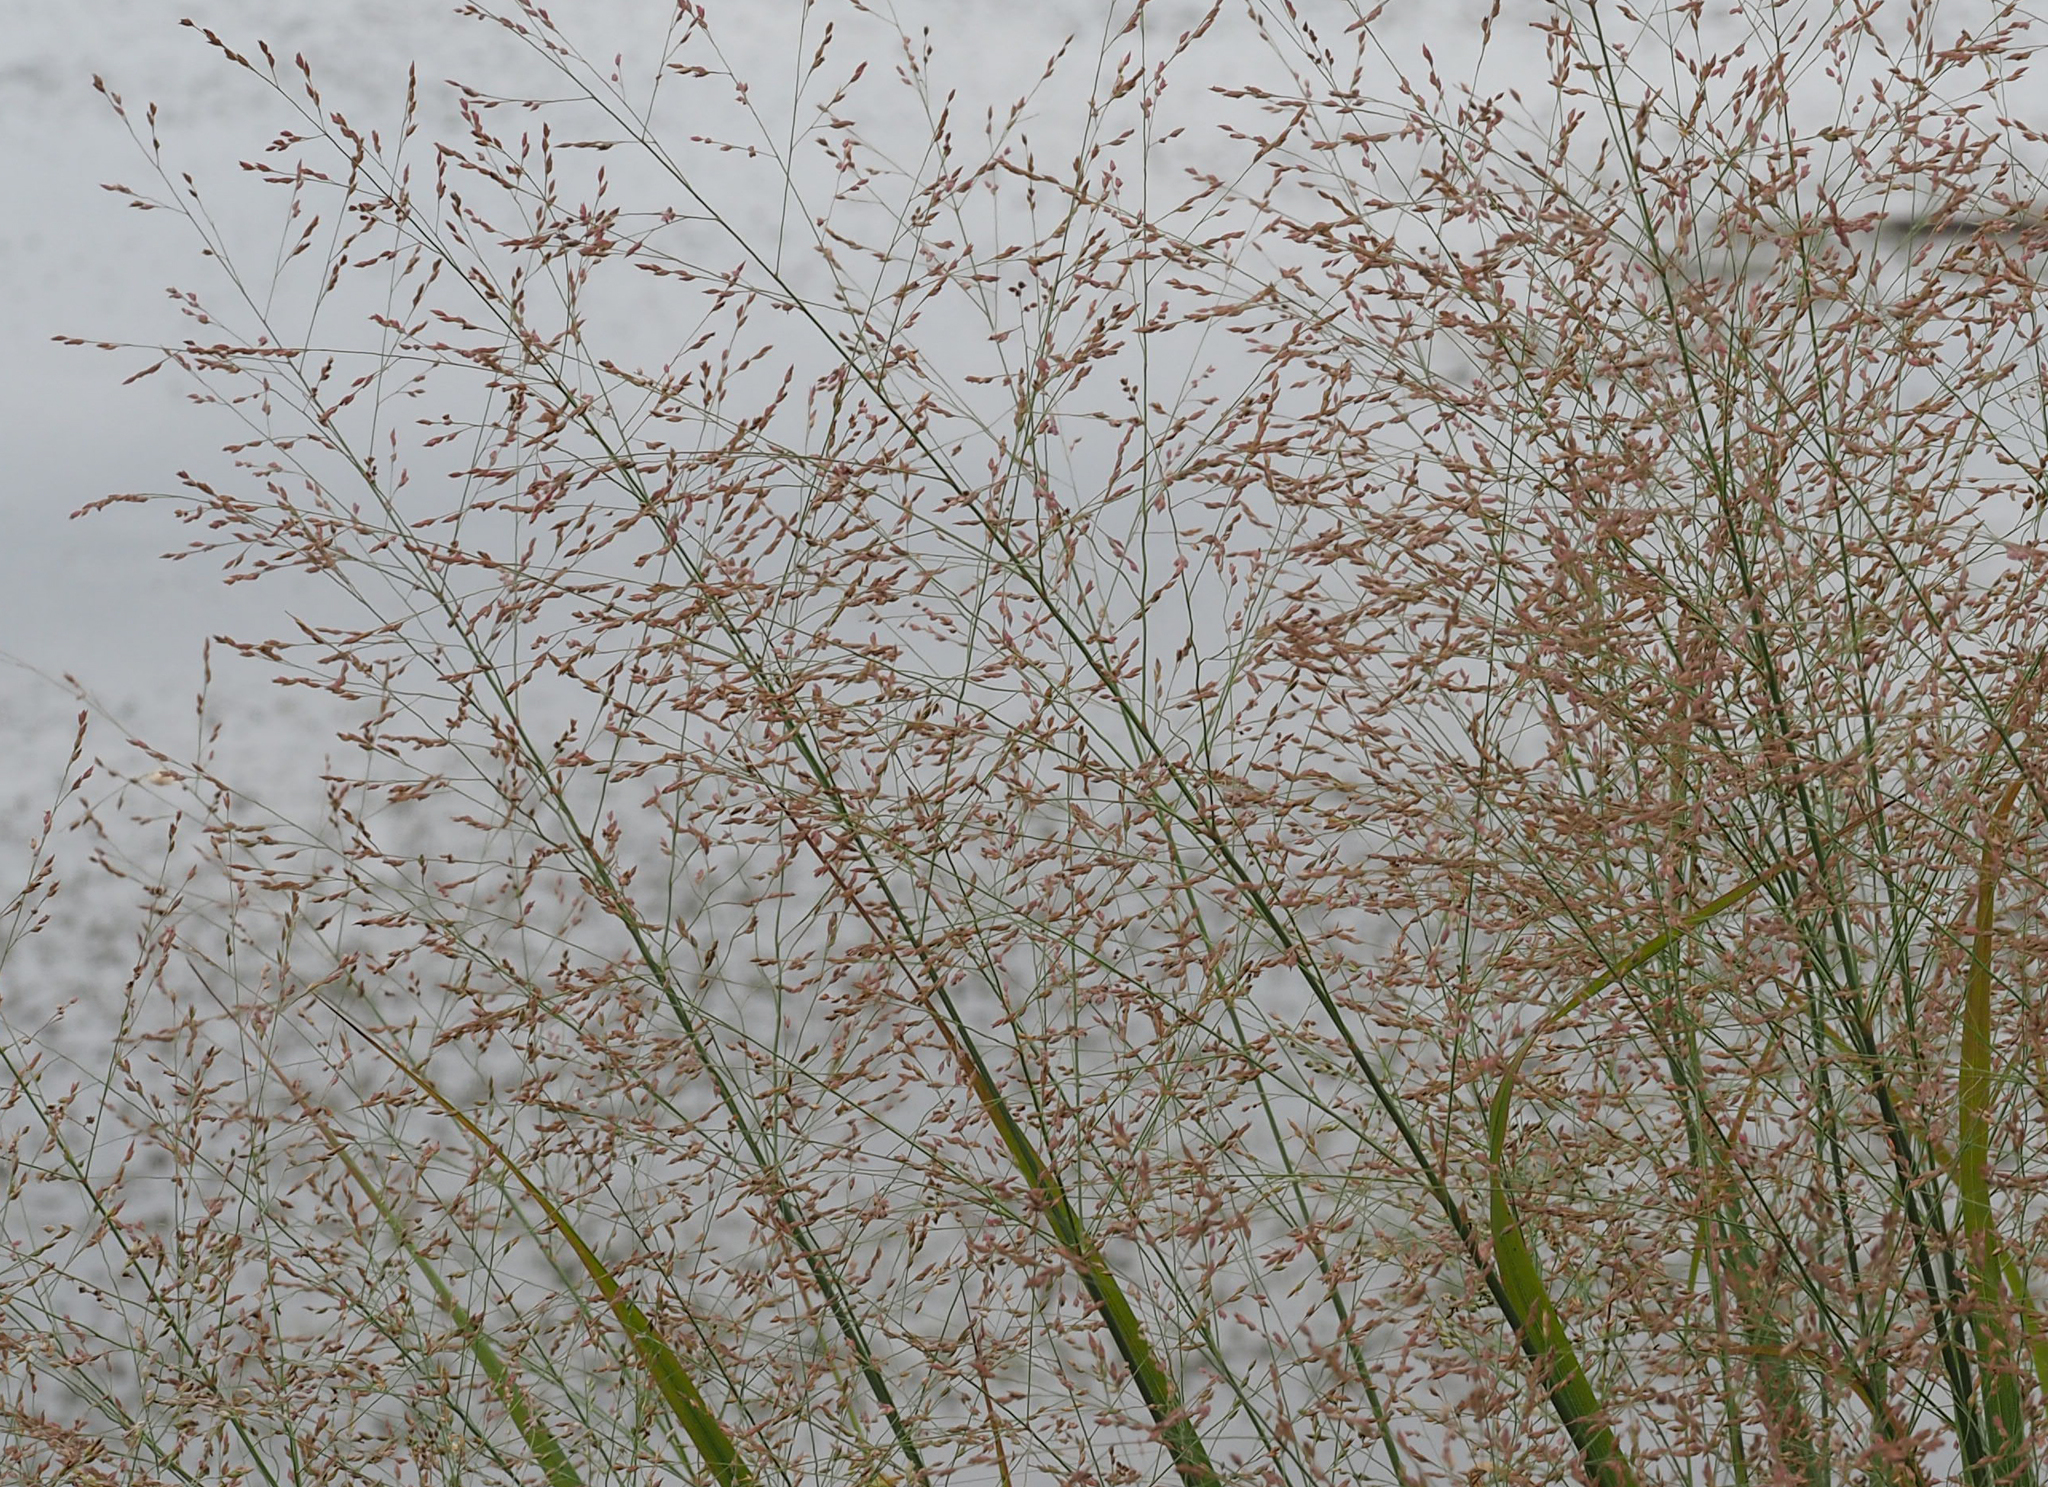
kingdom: Plantae
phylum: Tracheophyta
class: Liliopsida
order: Poales
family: Poaceae
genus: Panicum
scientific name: Panicum virgatum
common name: Switchgrass
